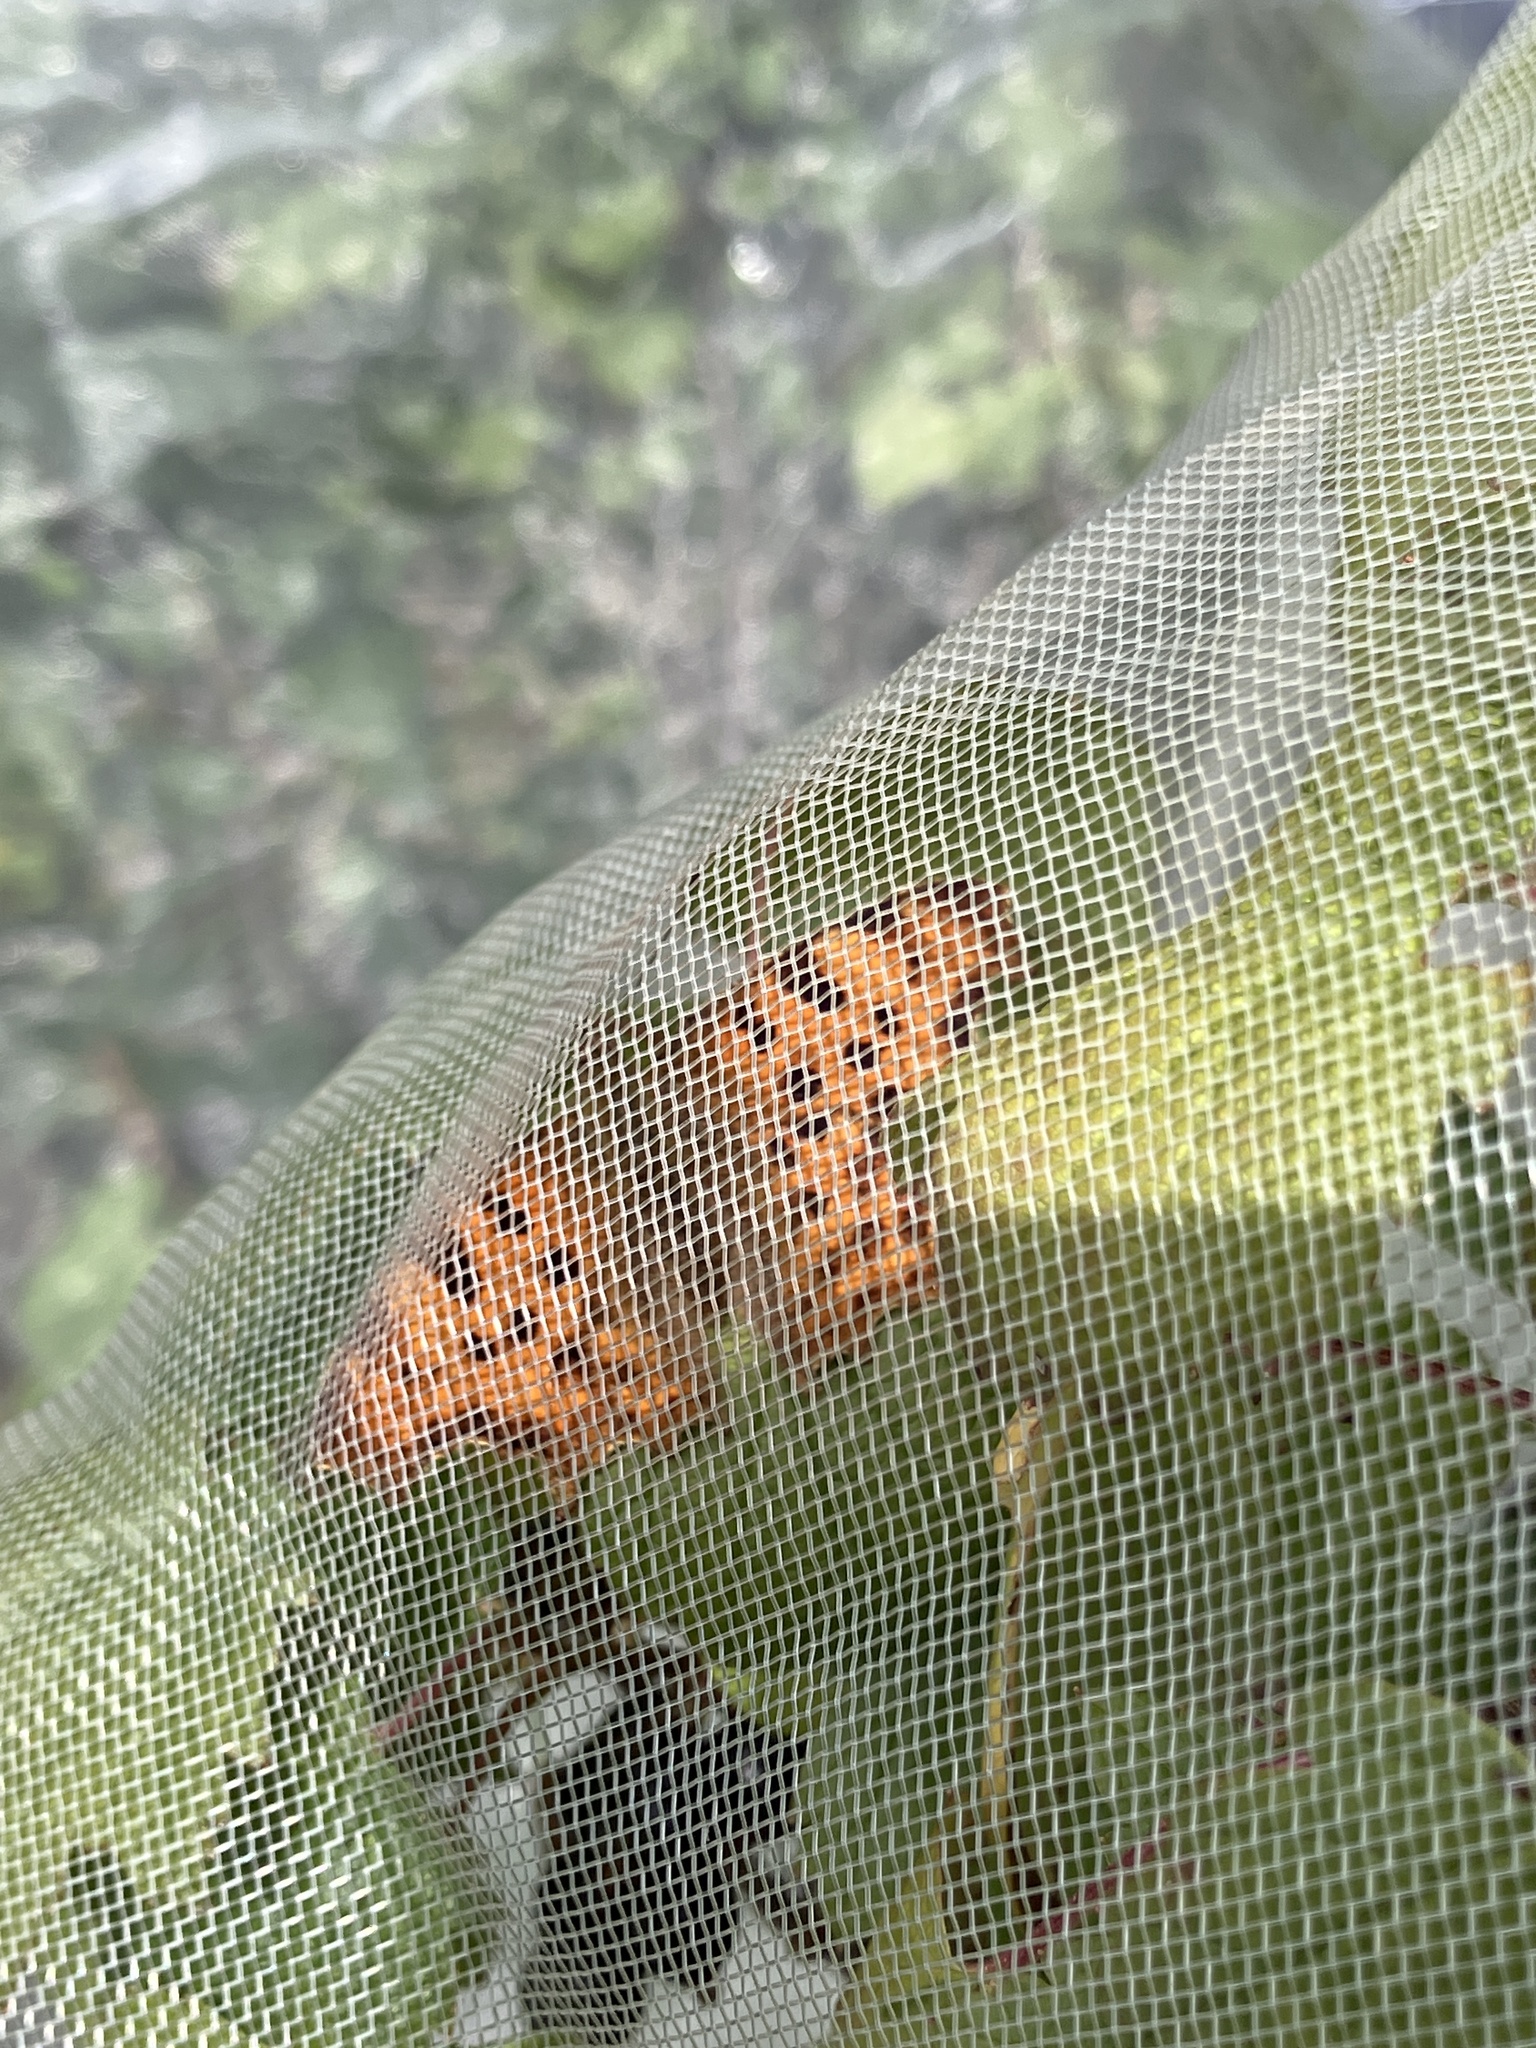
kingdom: Animalia
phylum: Arthropoda
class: Insecta
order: Lepidoptera
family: Nymphalidae
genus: Polygonia
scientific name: Polygonia c-album
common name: Comma
